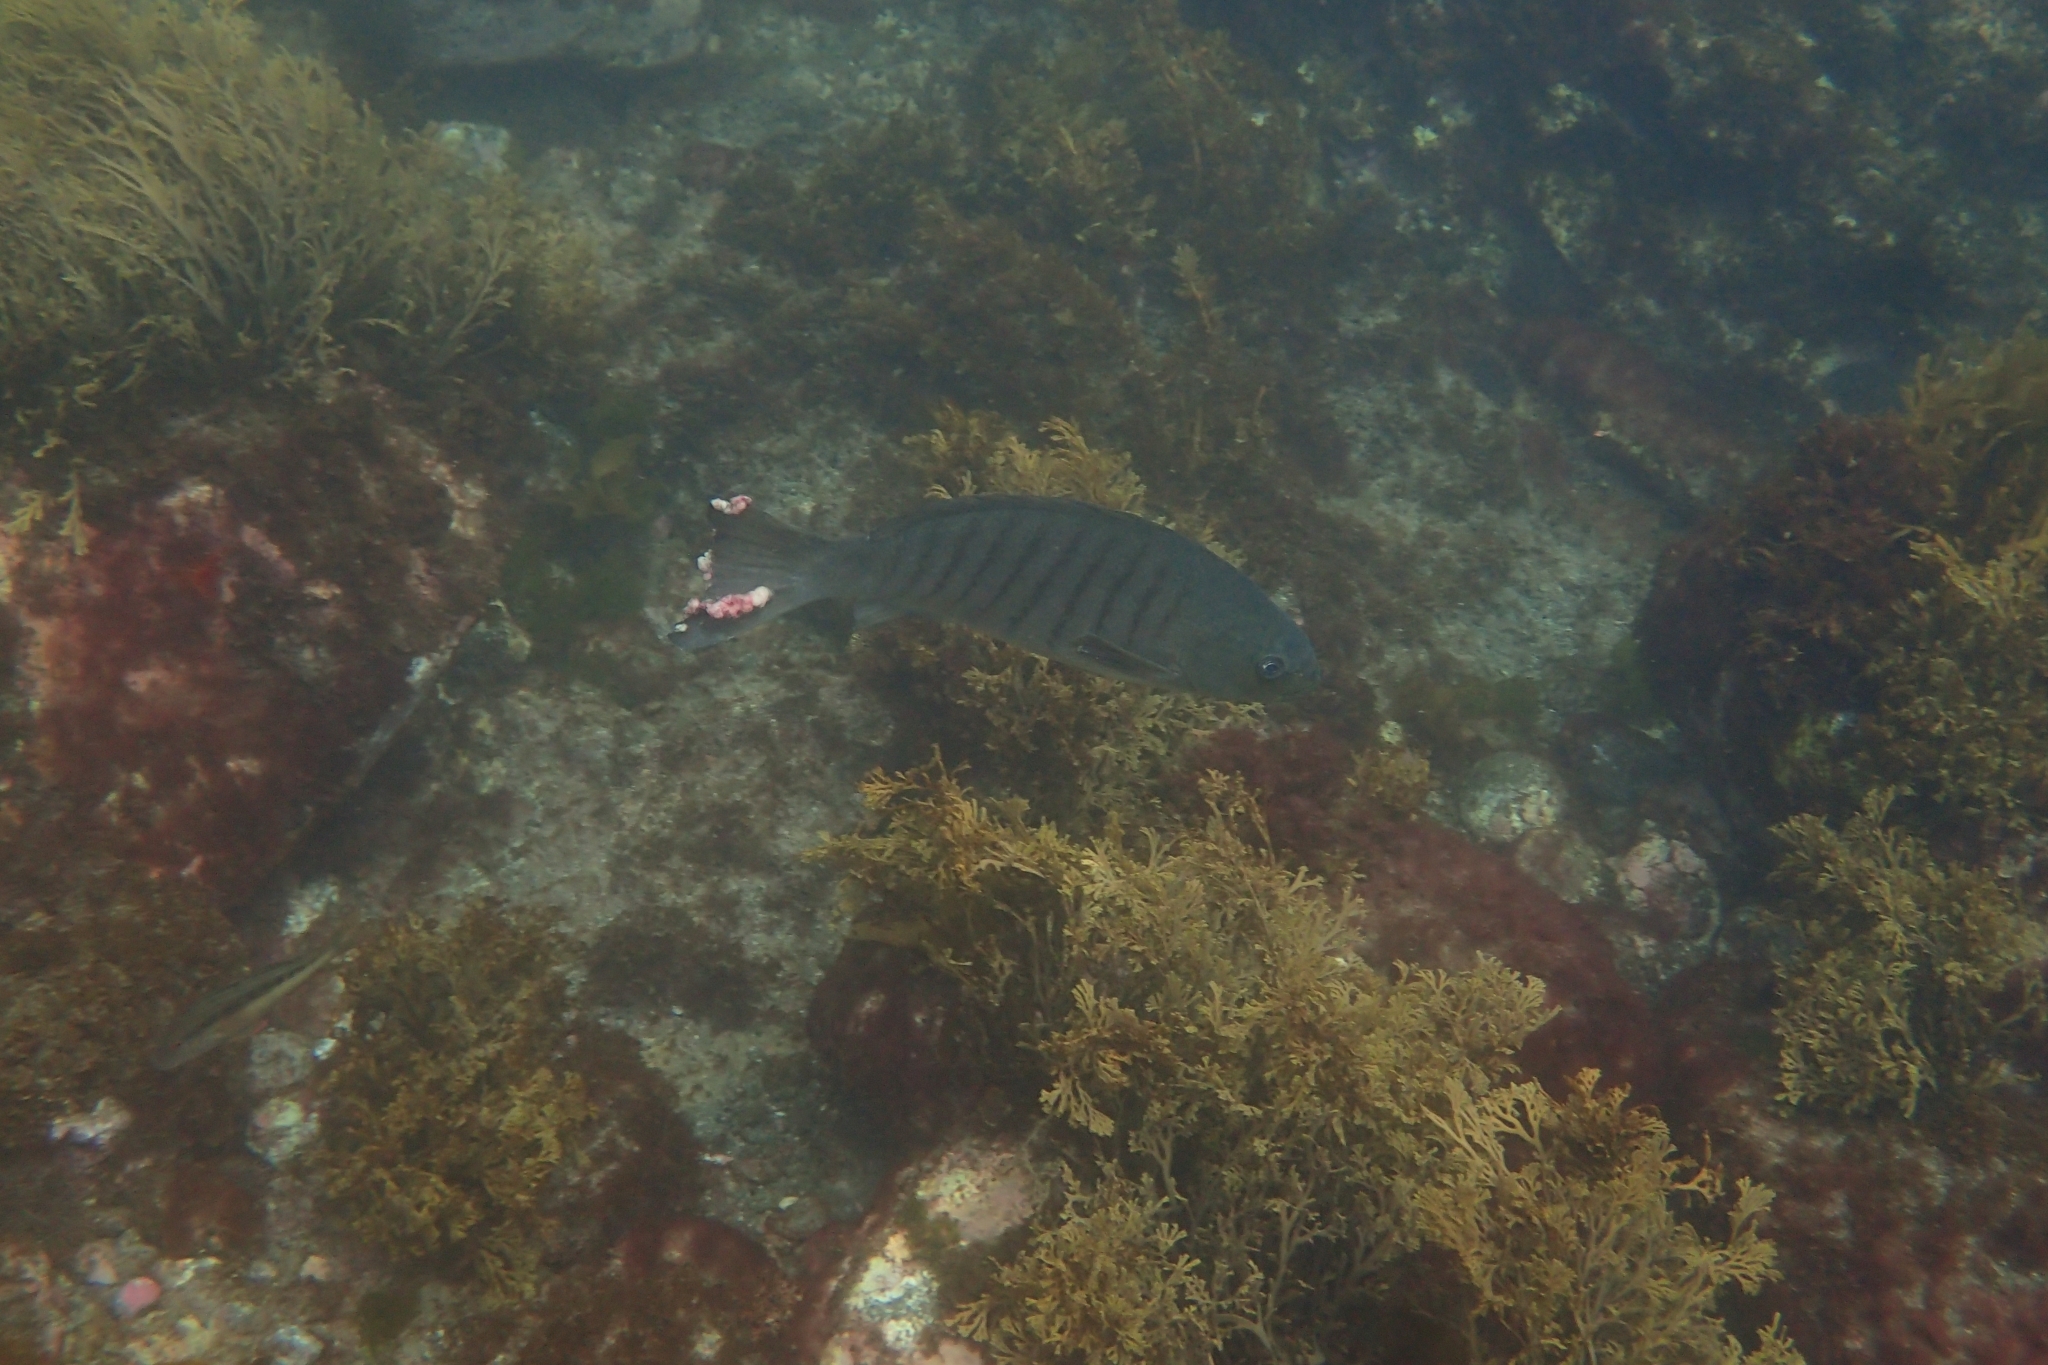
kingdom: Animalia
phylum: Chordata
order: Perciformes
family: Kyphosidae
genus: Girella
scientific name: Girella tricuspidata
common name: Parore
